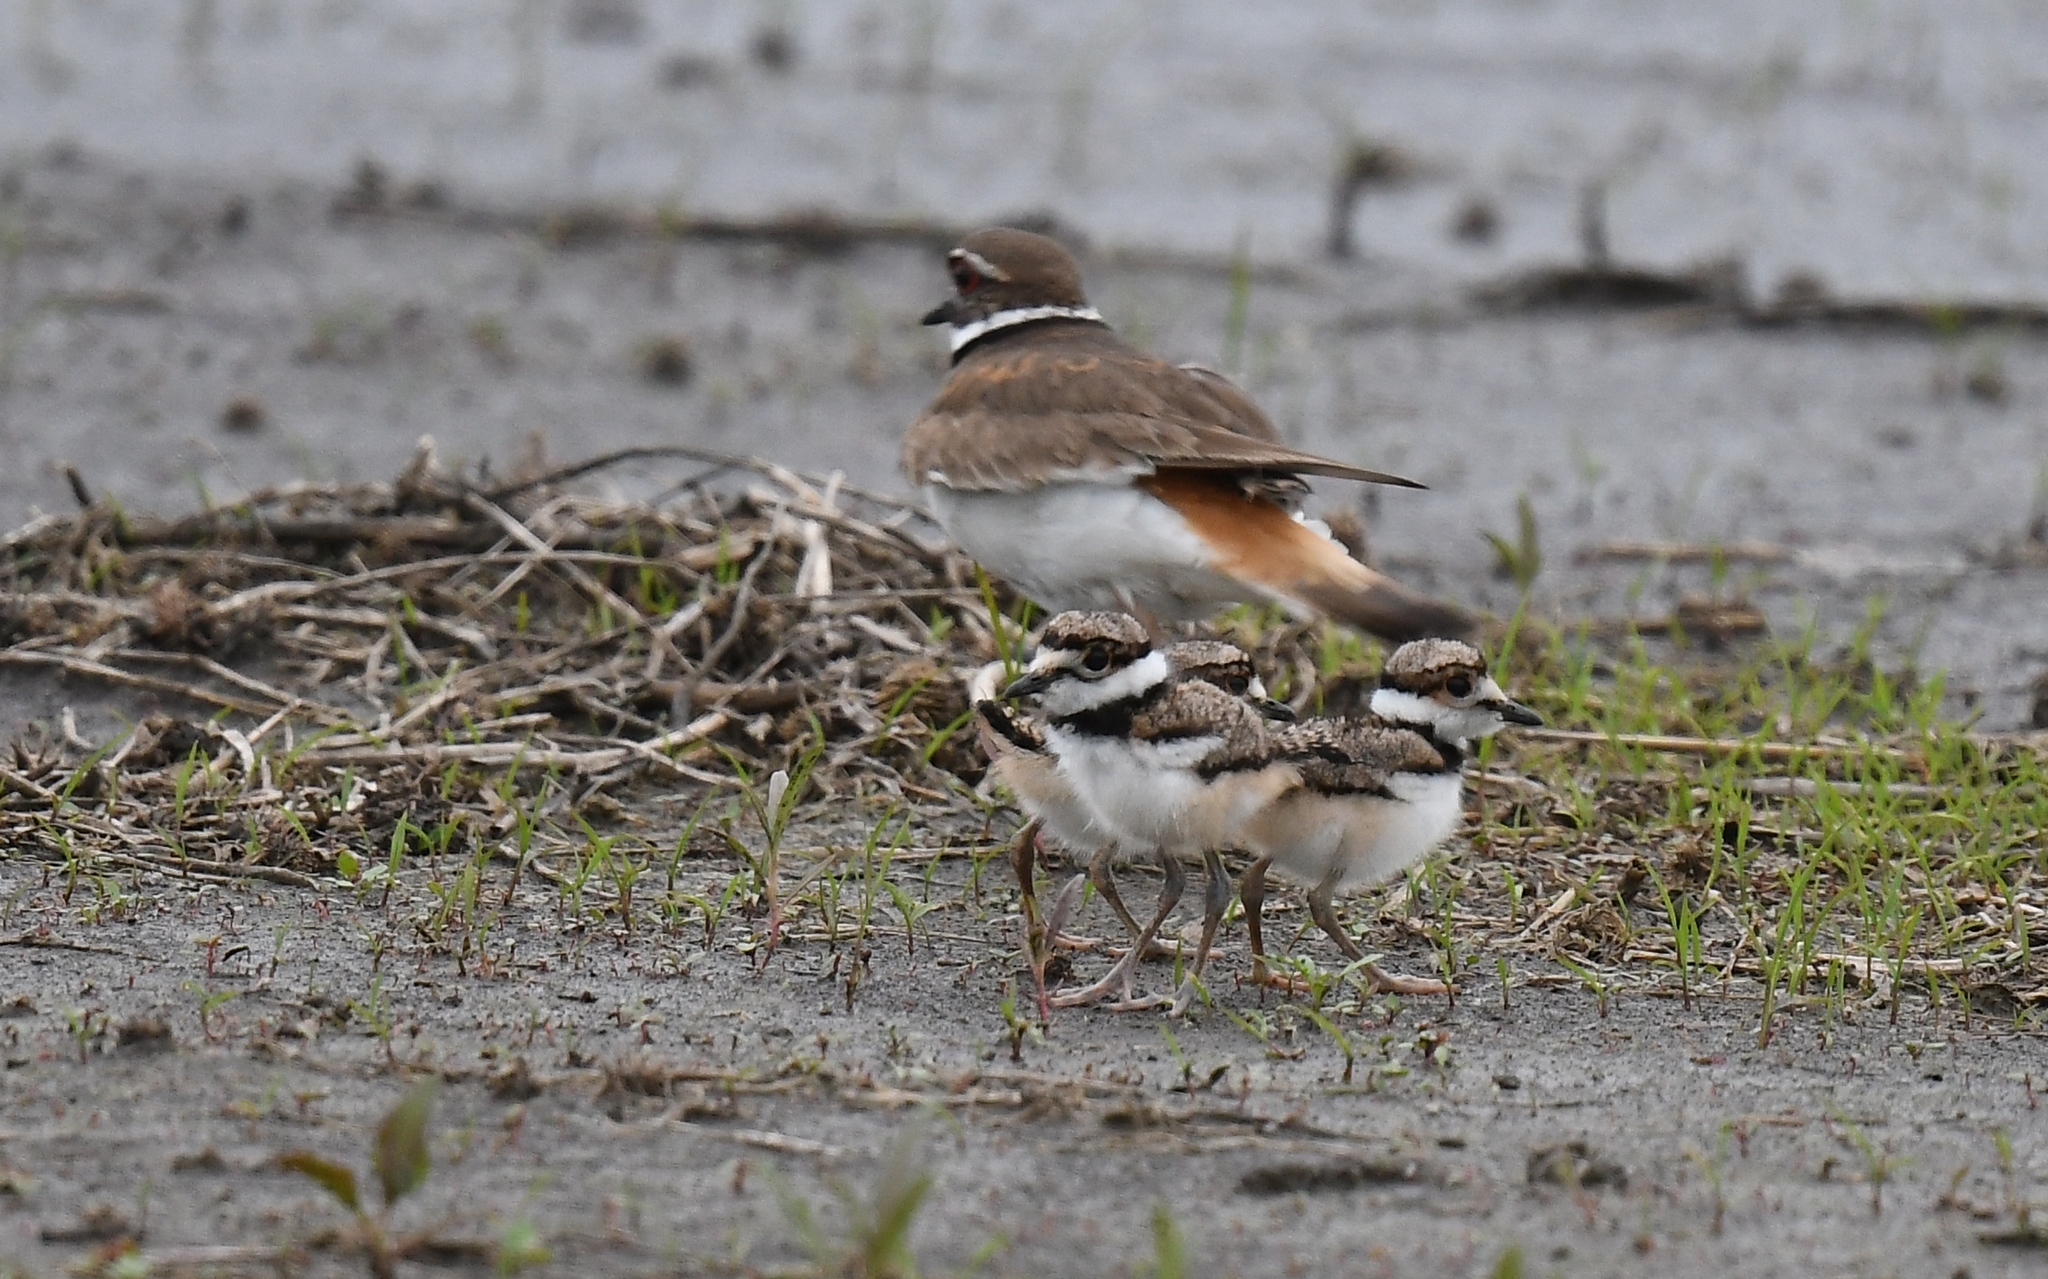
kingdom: Animalia
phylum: Chordata
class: Aves
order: Charadriiformes
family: Charadriidae
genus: Charadrius
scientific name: Charadrius vociferus
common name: Killdeer
